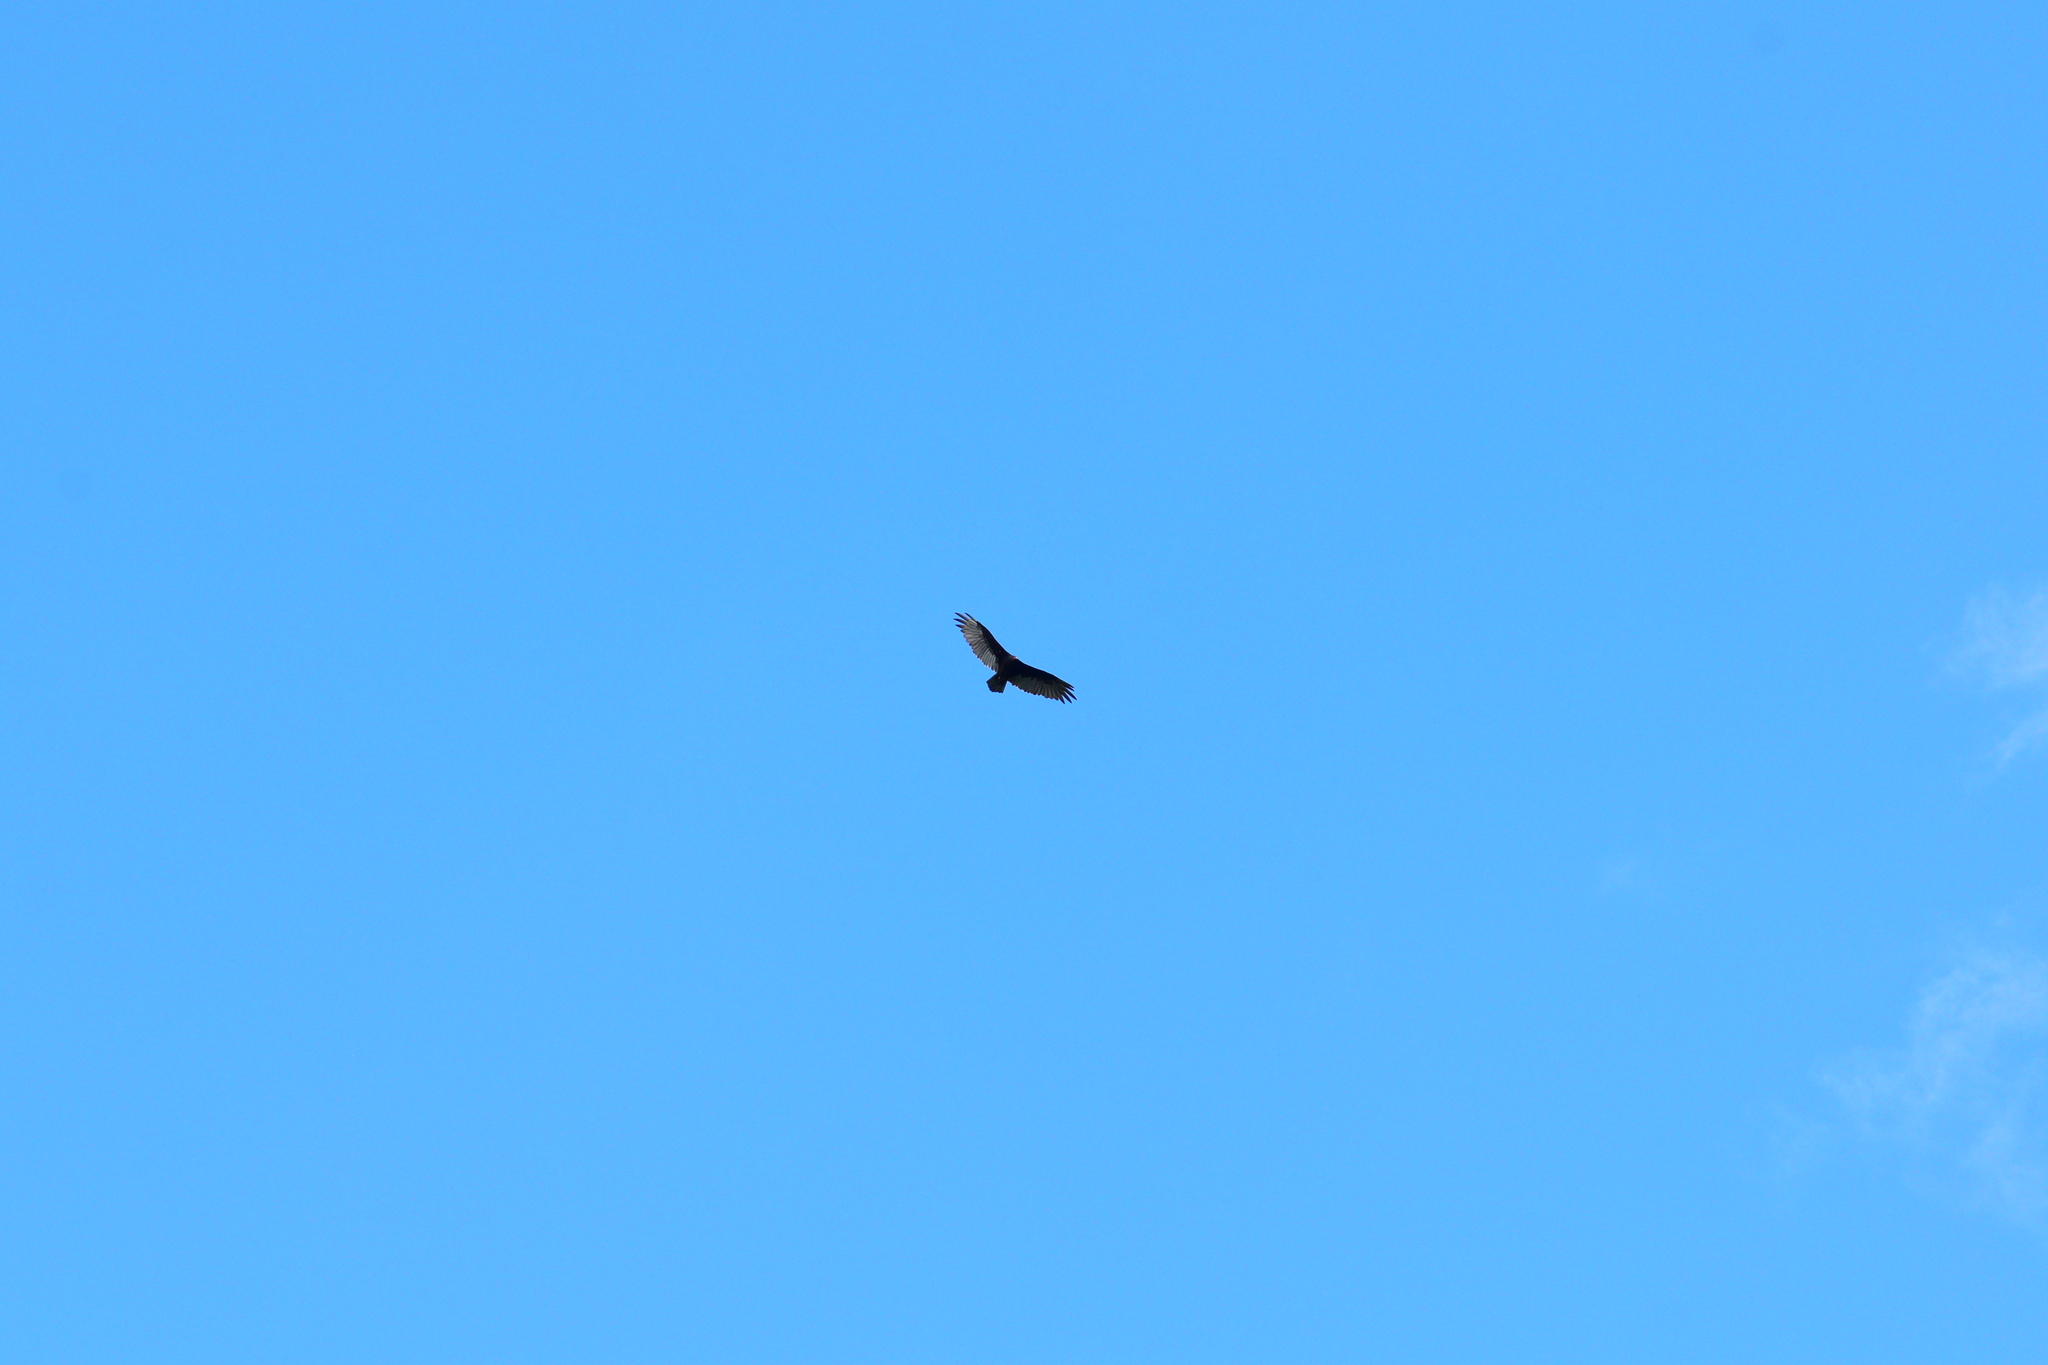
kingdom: Animalia
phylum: Chordata
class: Aves
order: Accipitriformes
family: Cathartidae
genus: Cathartes
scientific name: Cathartes aura
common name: Turkey vulture
